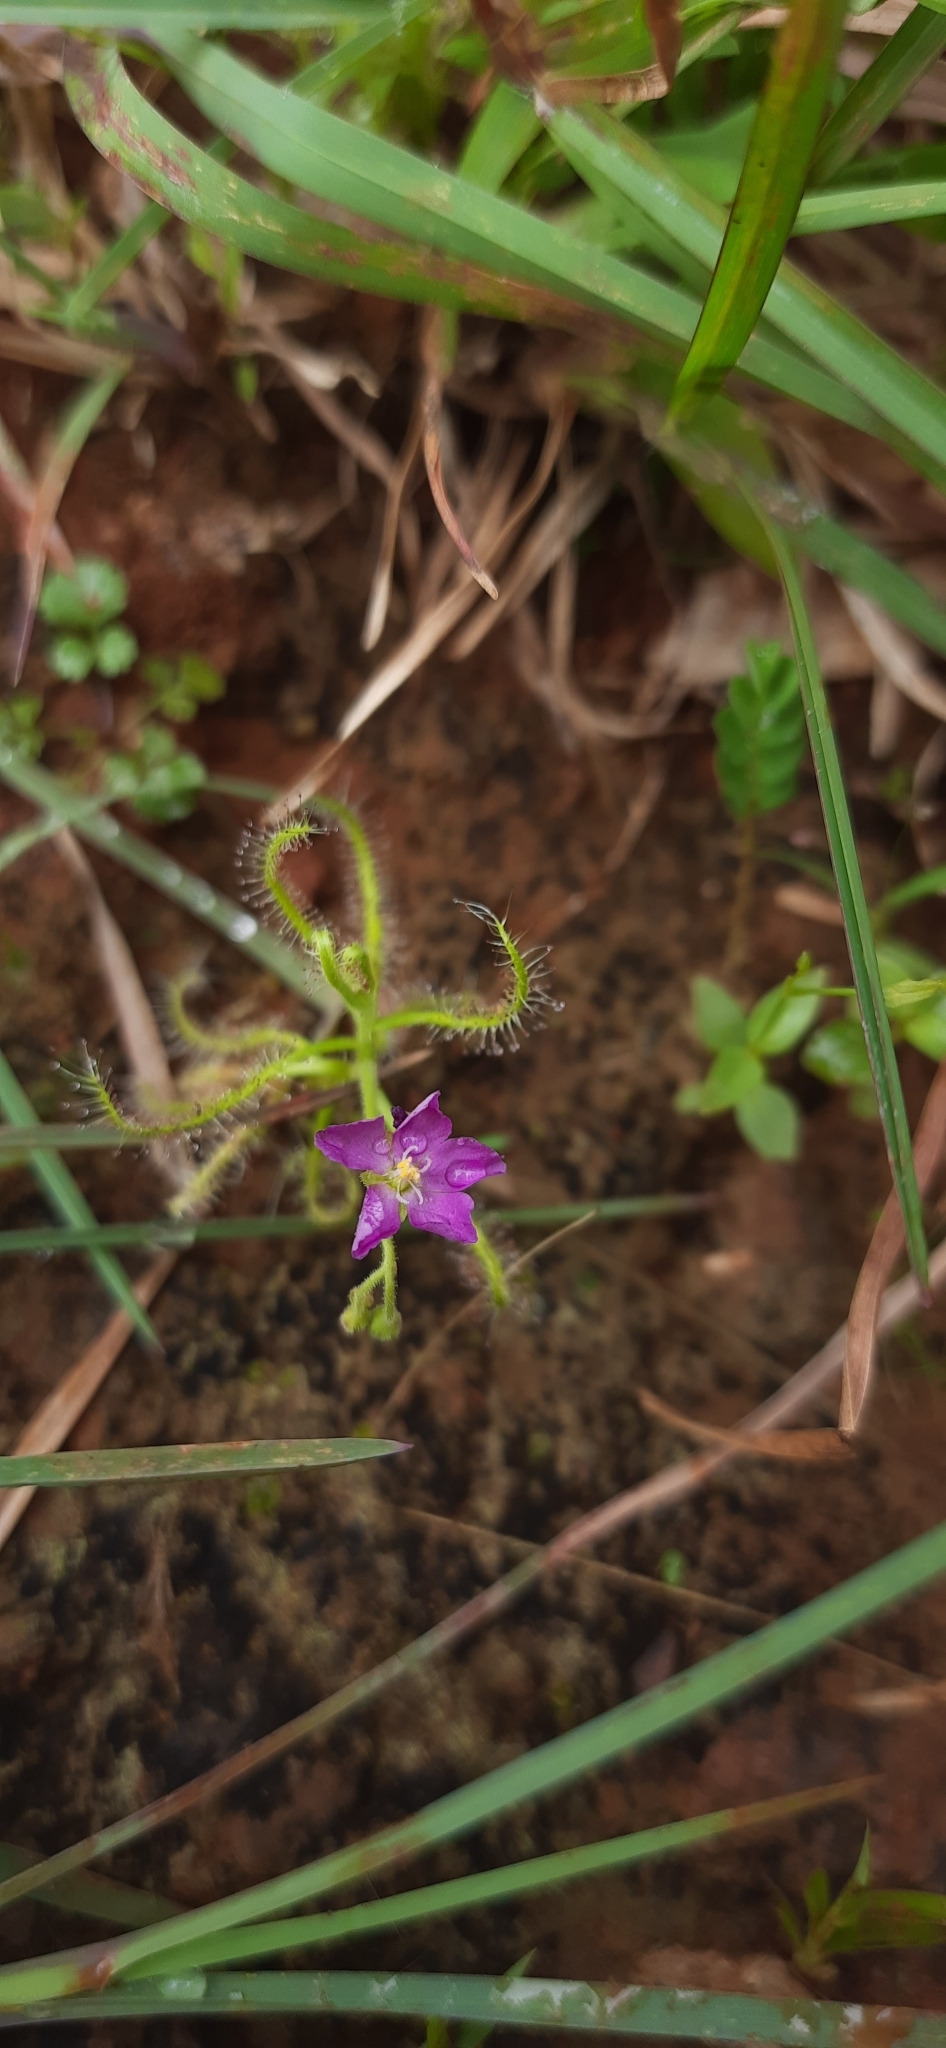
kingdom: Plantae
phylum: Tracheophyta
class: Magnoliopsida
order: Caryophyllales
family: Droseraceae
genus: Drosera
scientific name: Drosera indica
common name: Indian sundew
